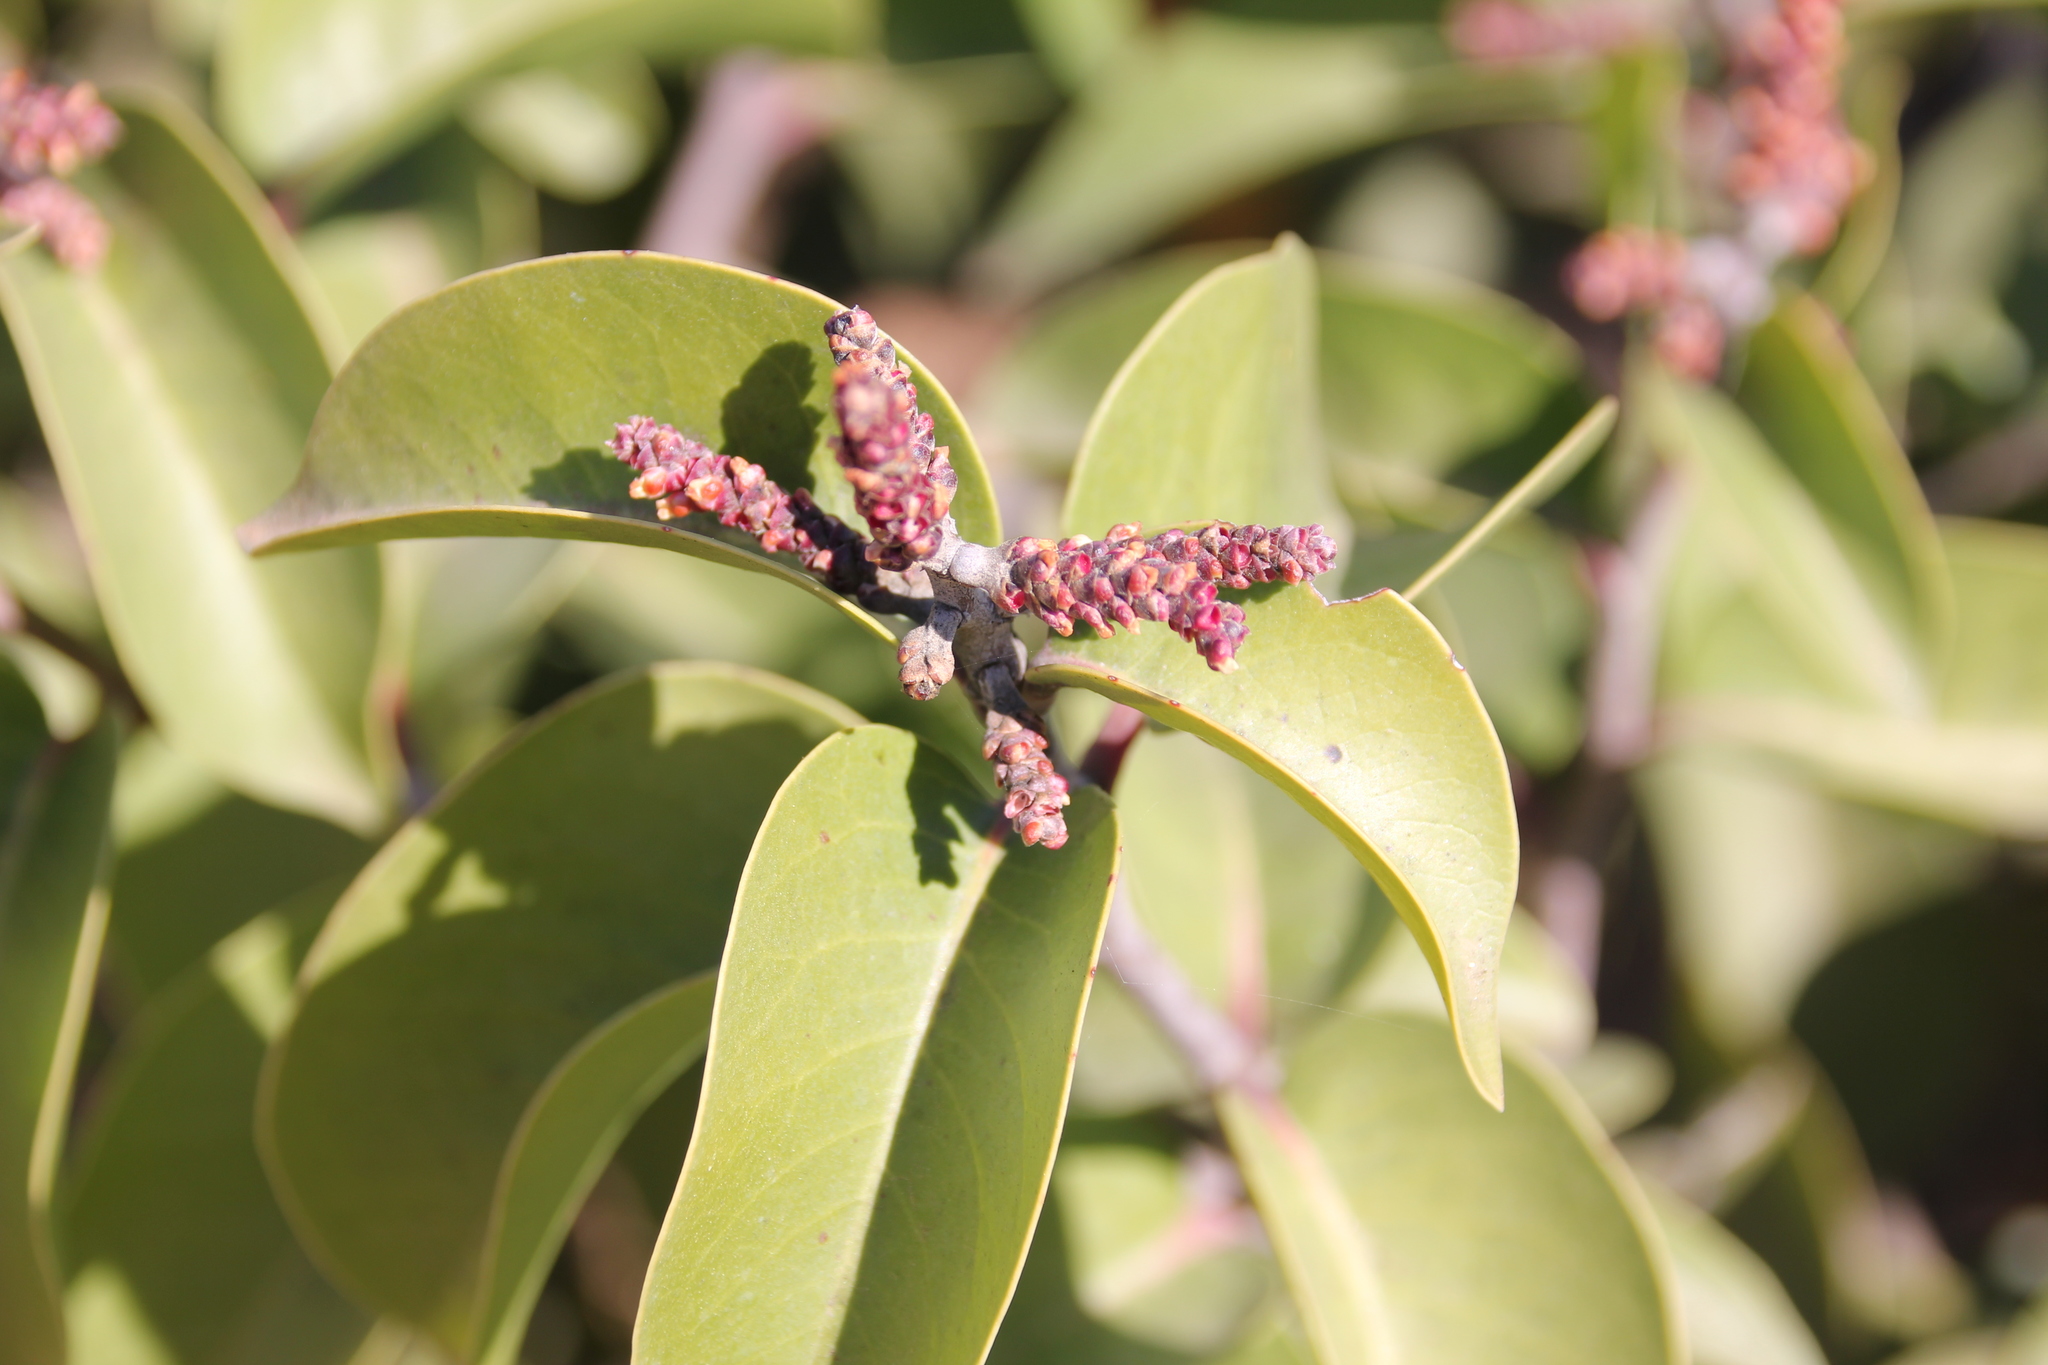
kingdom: Plantae
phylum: Tracheophyta
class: Magnoliopsida
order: Sapindales
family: Anacardiaceae
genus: Rhus
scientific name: Rhus ovata
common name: Sugar sumac
